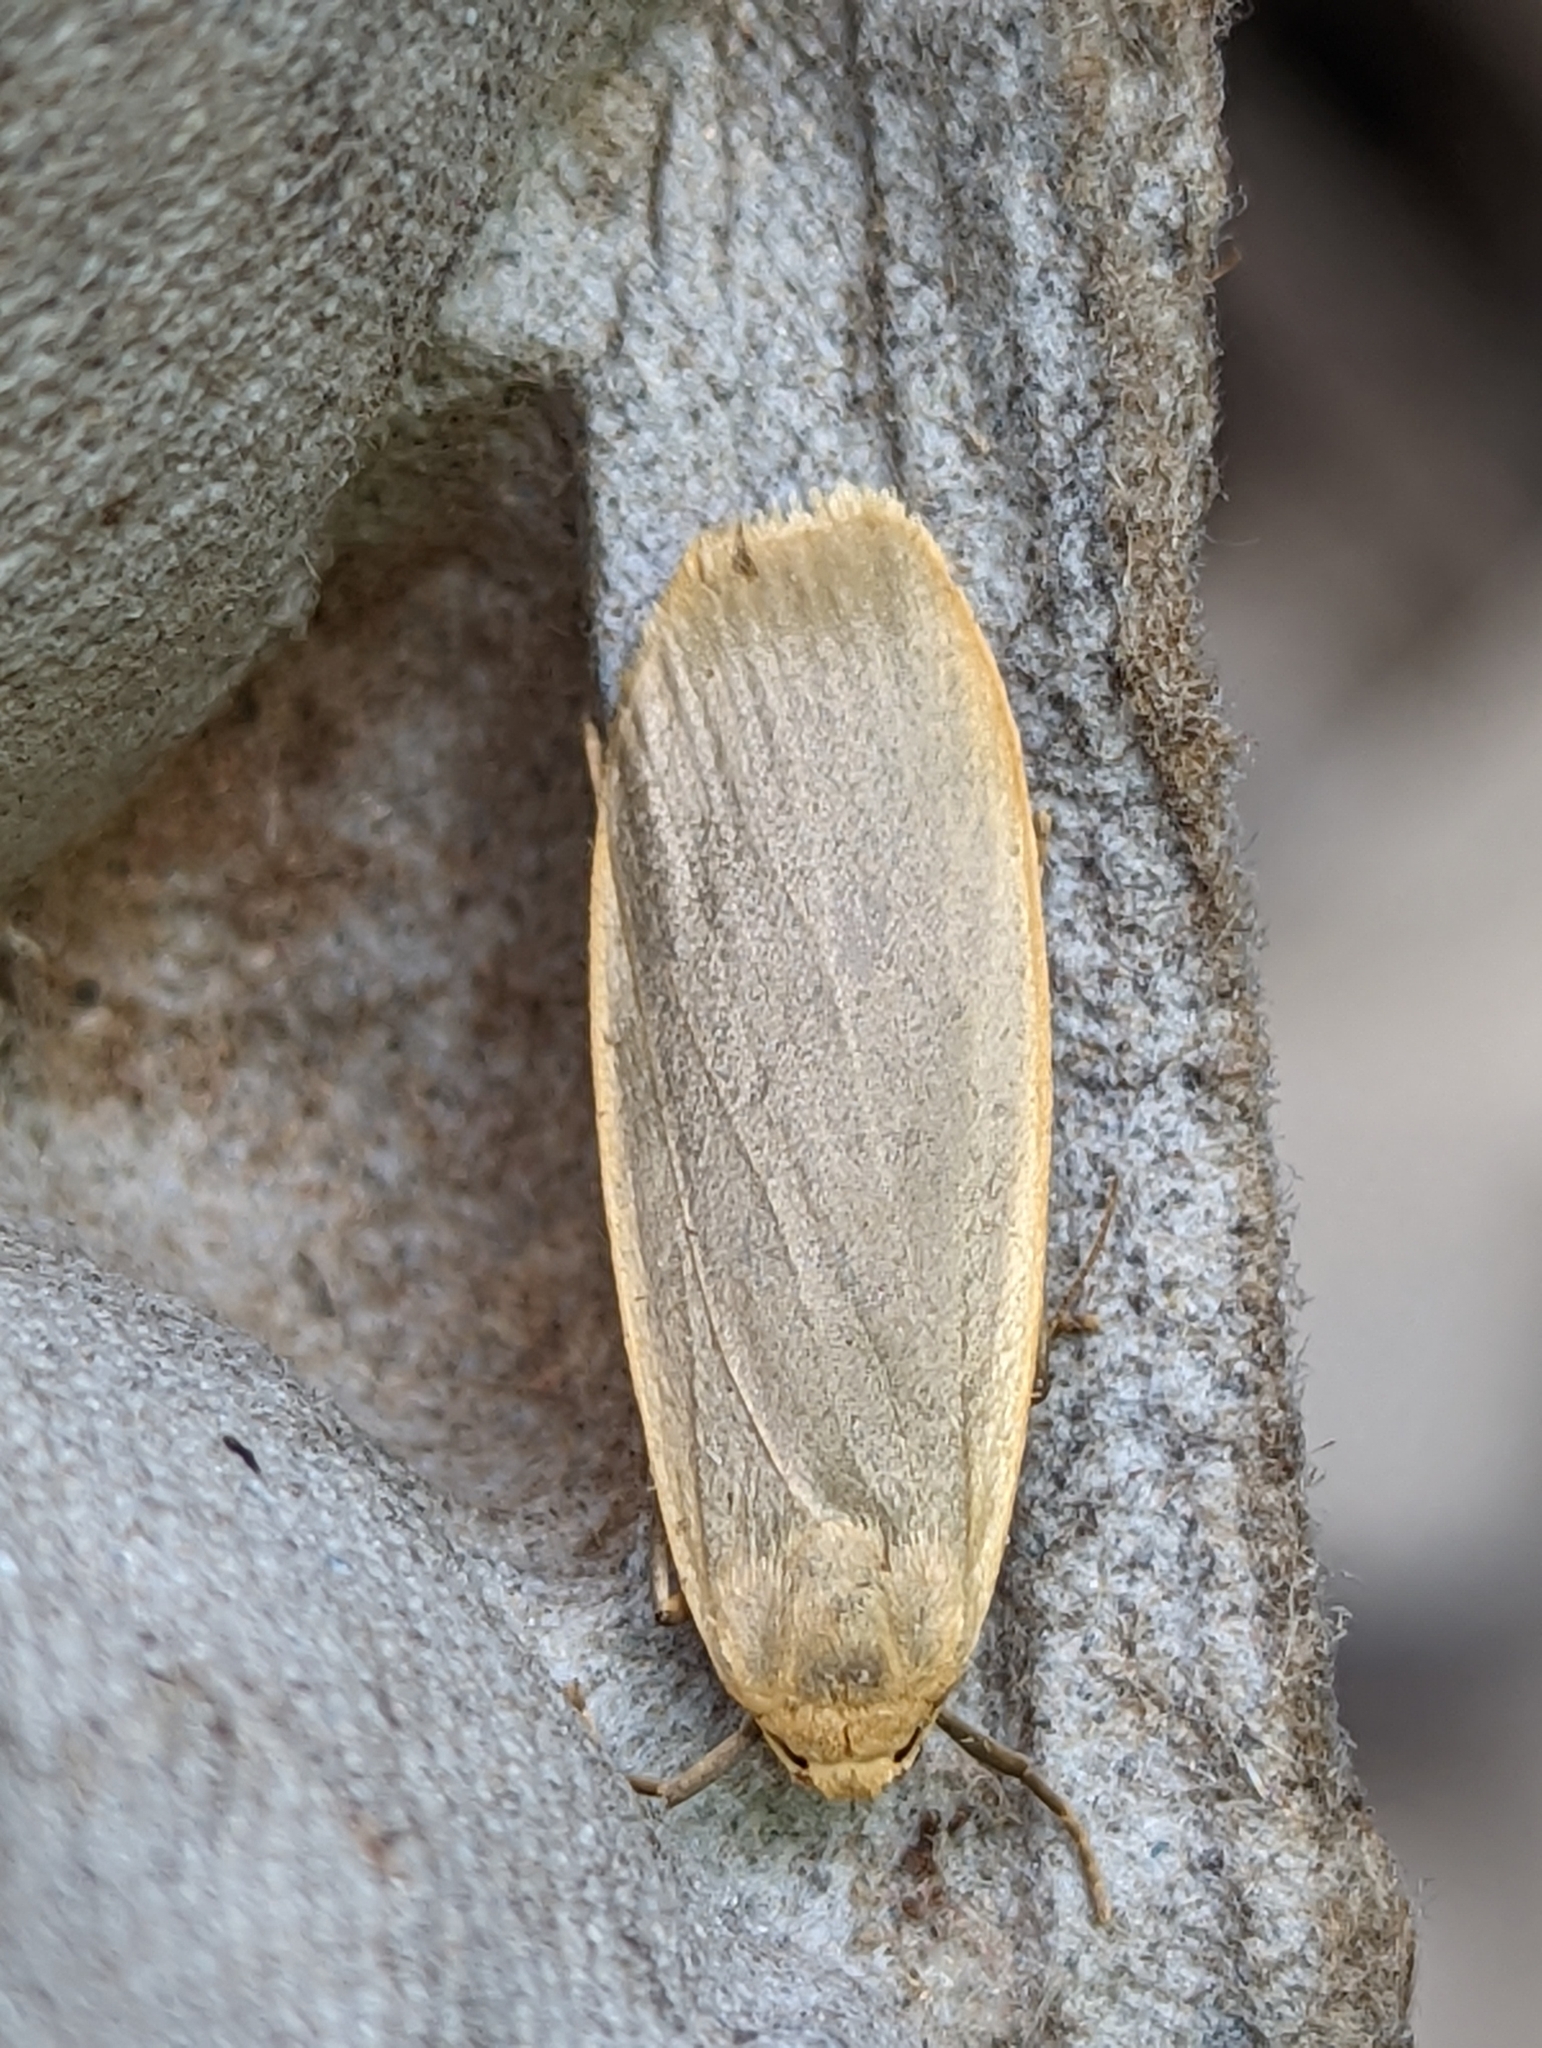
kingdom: Animalia
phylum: Arthropoda
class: Insecta
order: Lepidoptera
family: Erebidae
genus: Collita
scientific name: Collita griseola
